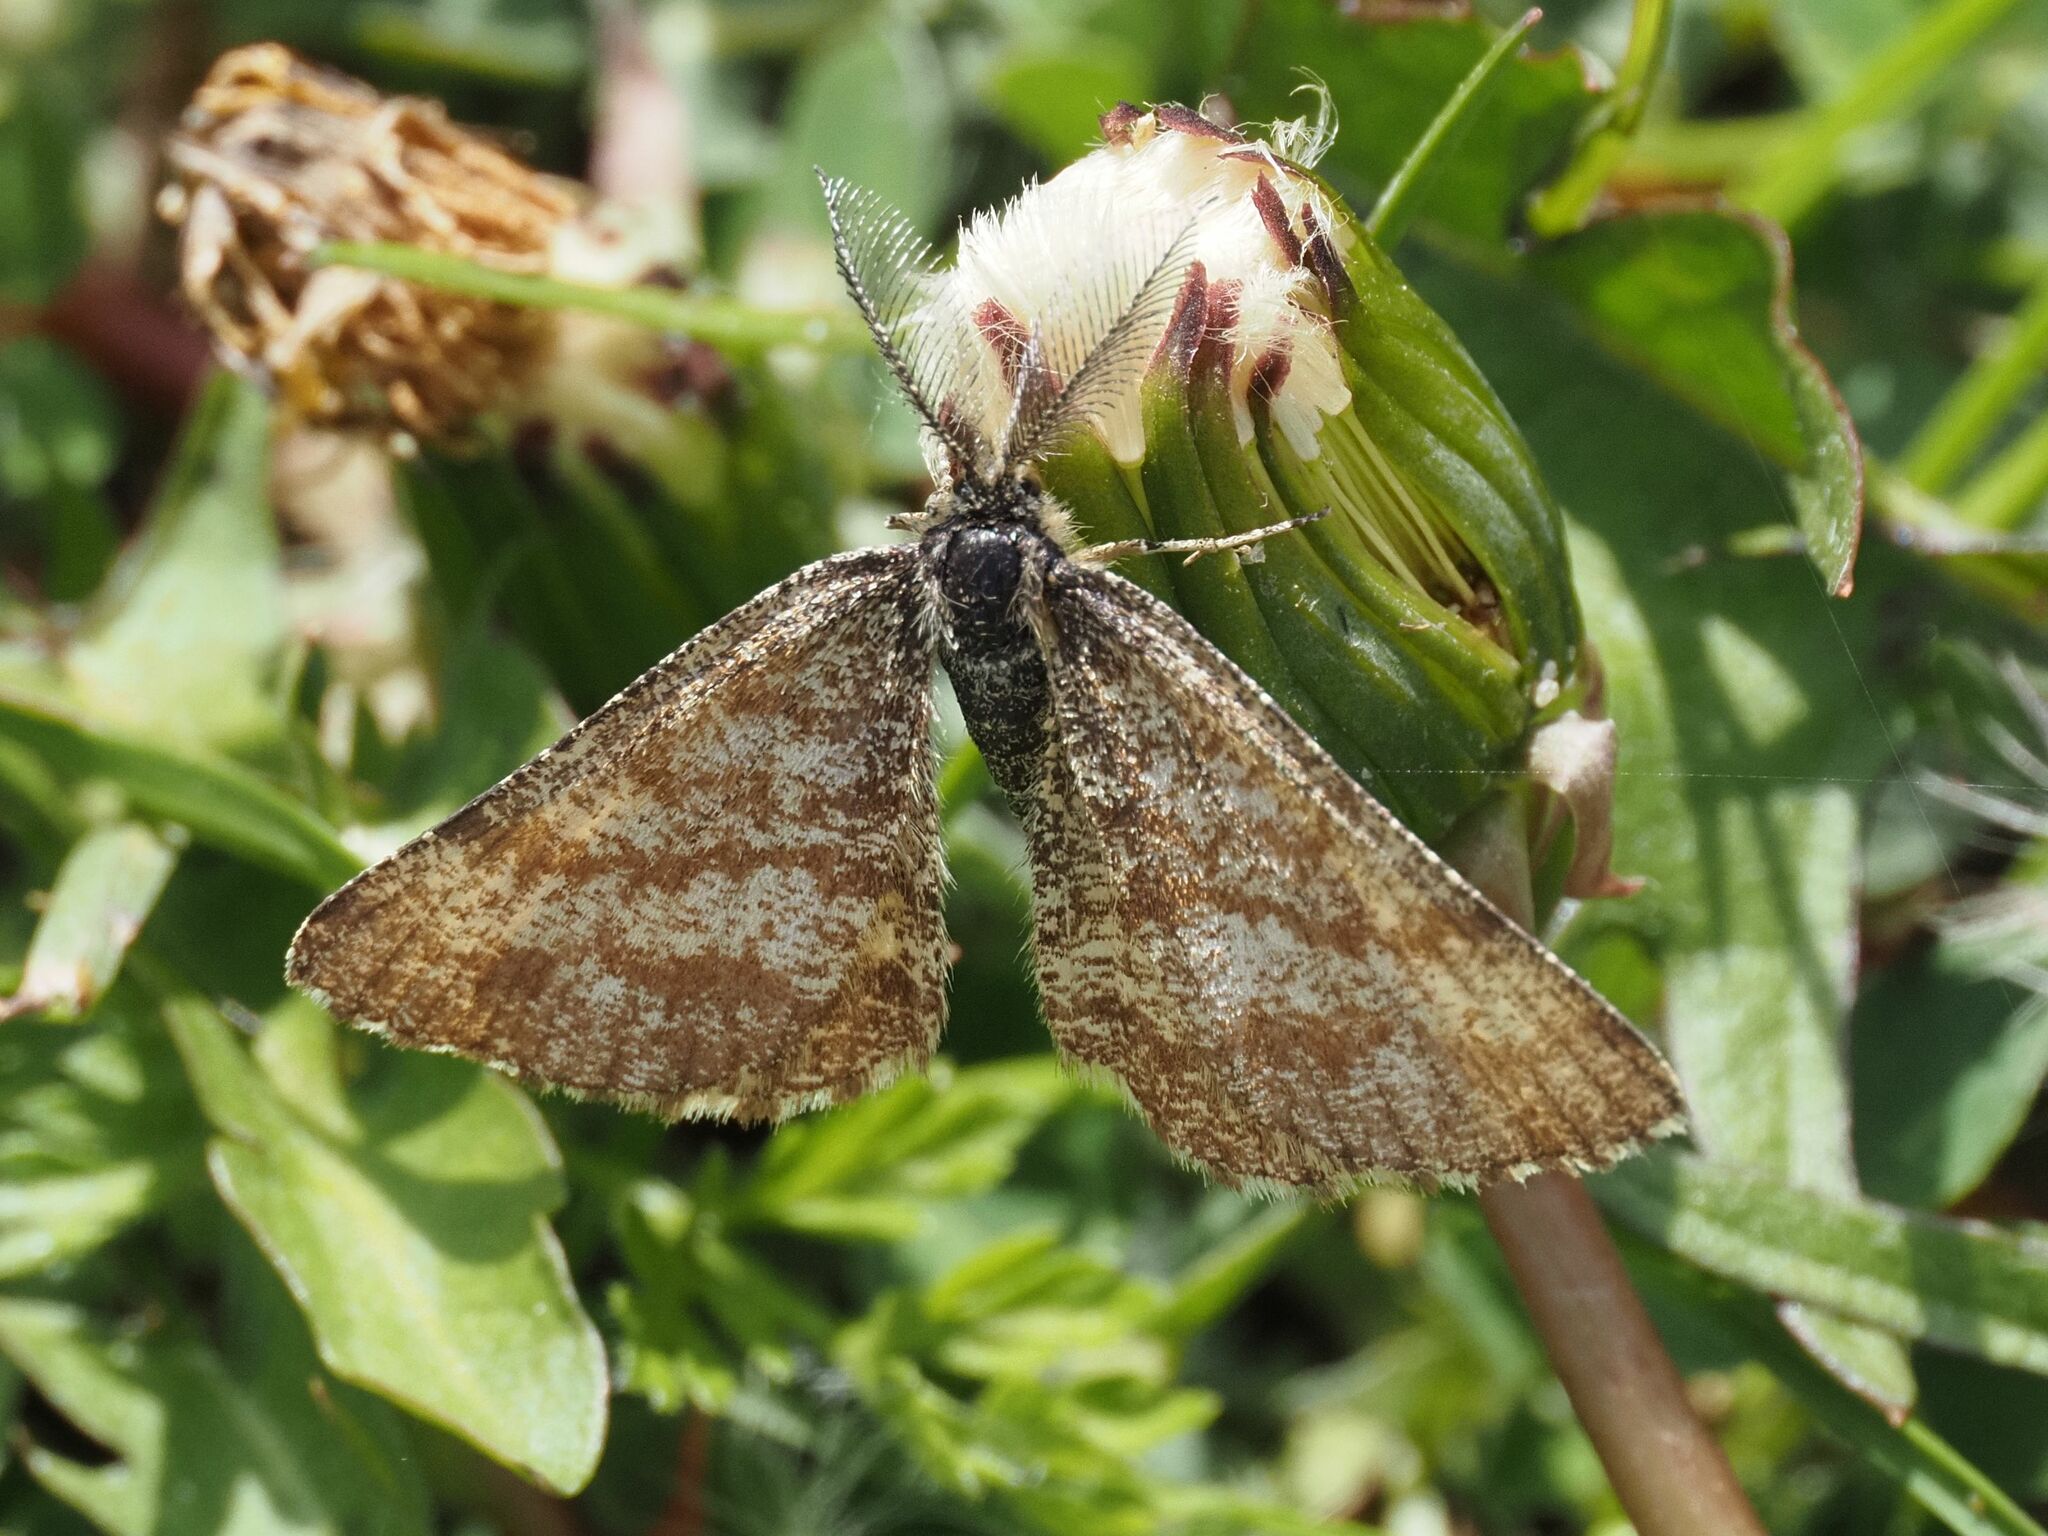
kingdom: Animalia
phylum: Arthropoda
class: Insecta
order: Lepidoptera
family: Geometridae
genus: Ematurga
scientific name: Ematurga atomaria
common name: Common heath
